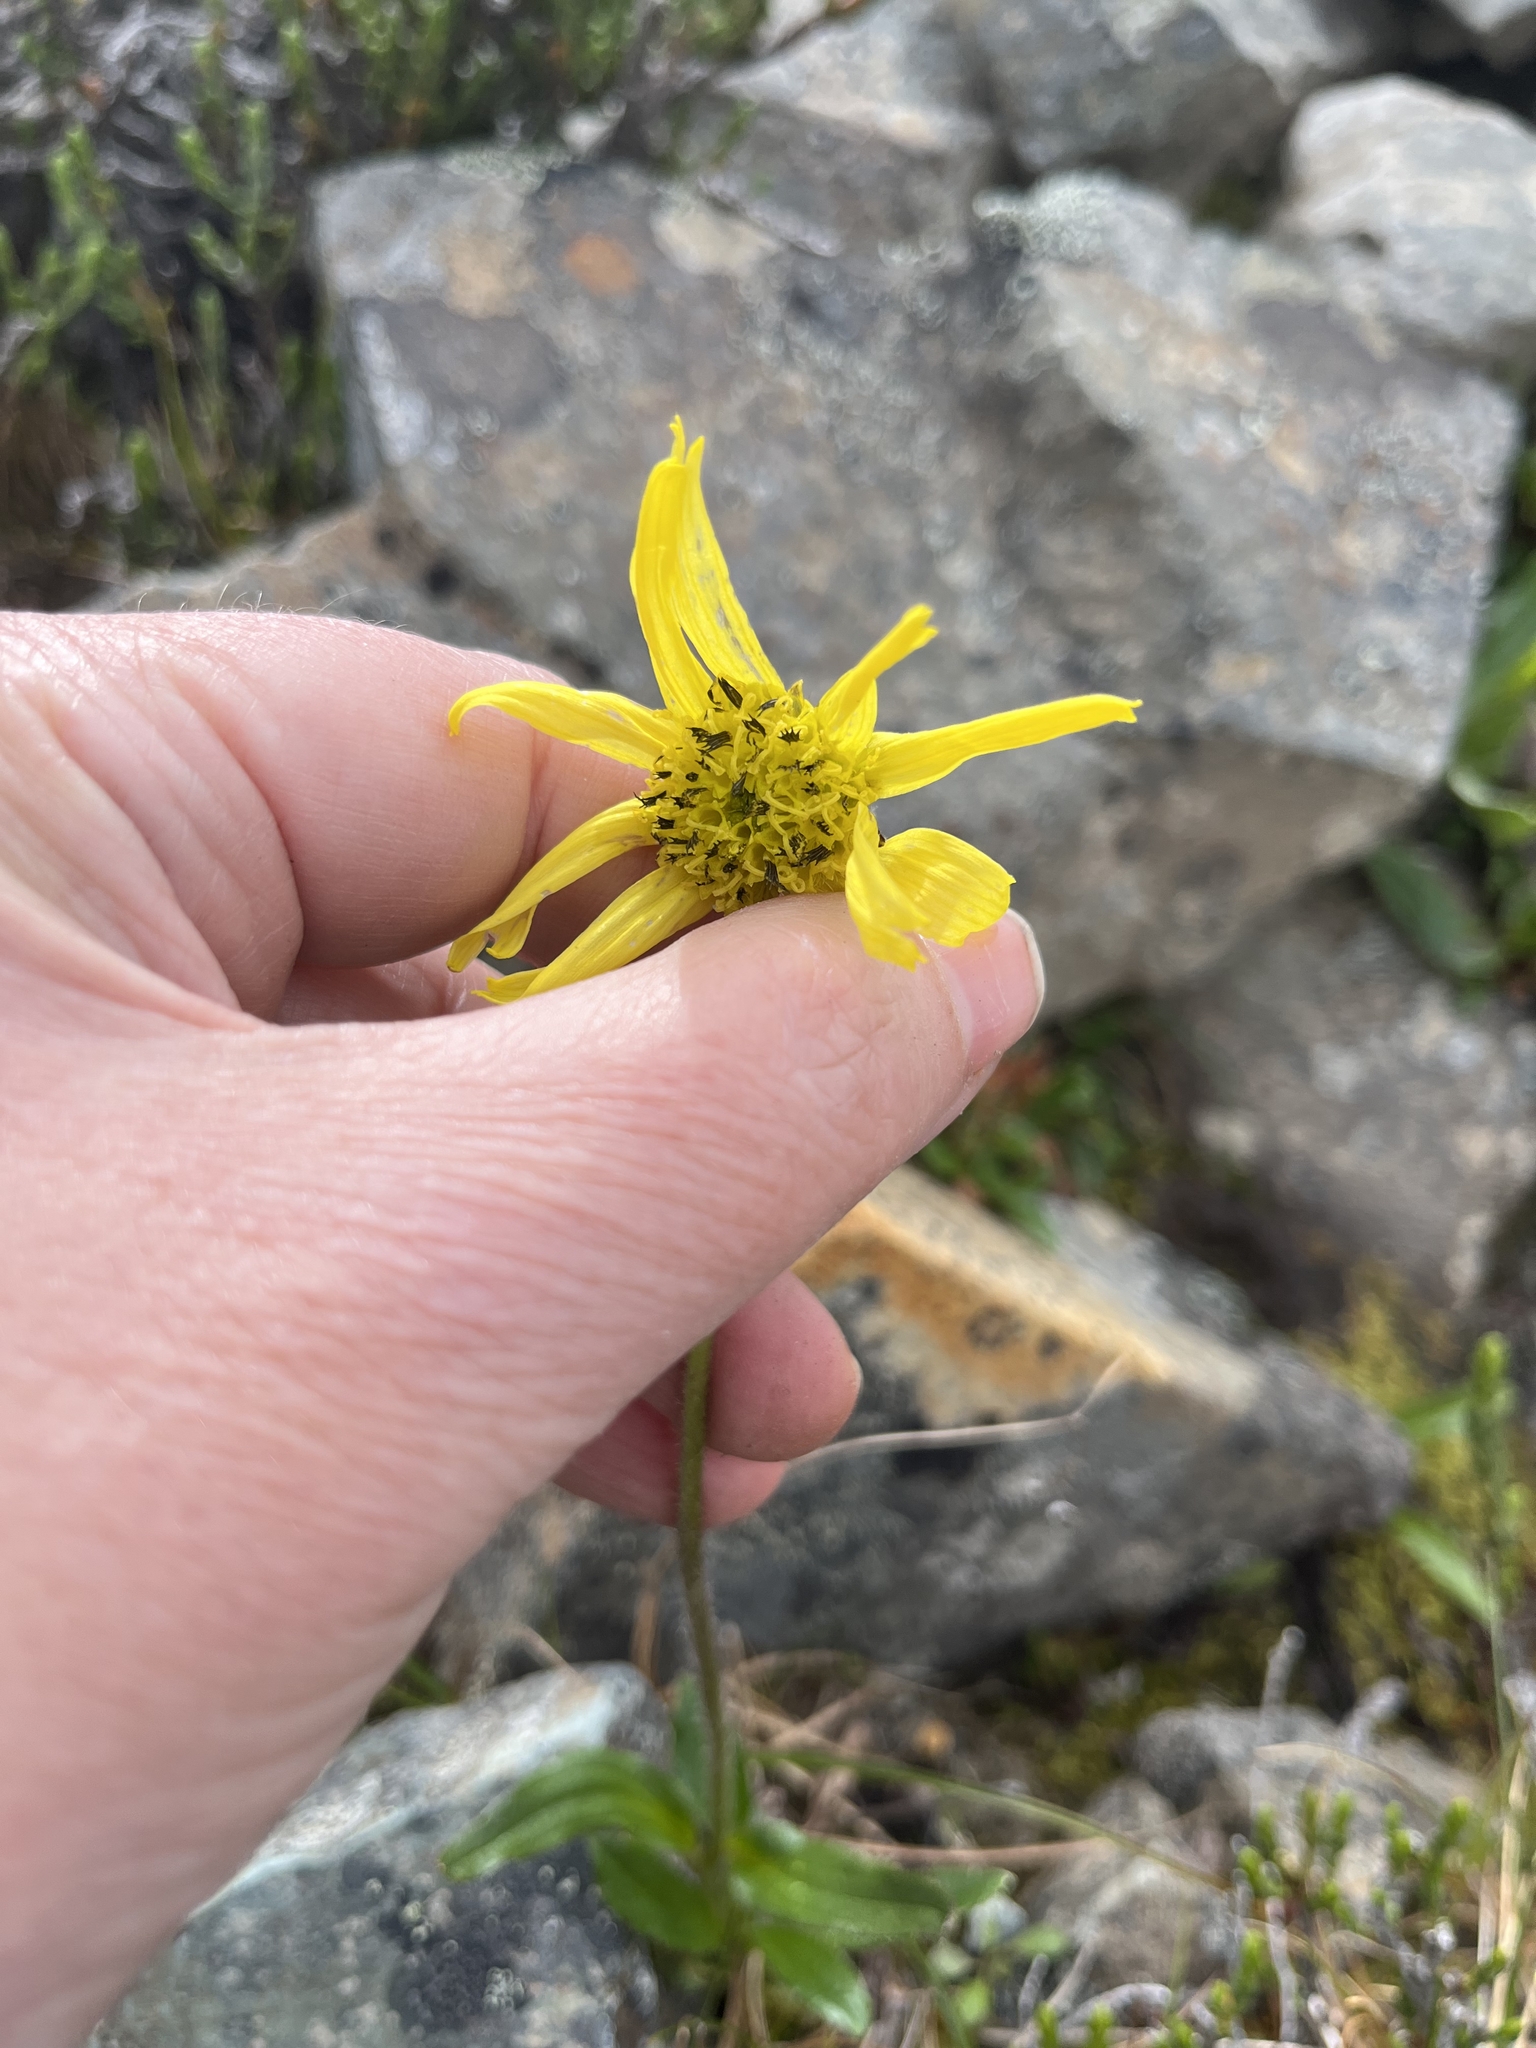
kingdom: Plantae
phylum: Tracheophyta
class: Magnoliopsida
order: Asterales
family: Asteraceae
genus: Arnica
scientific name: Arnica lessingii
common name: Nodding arnica
